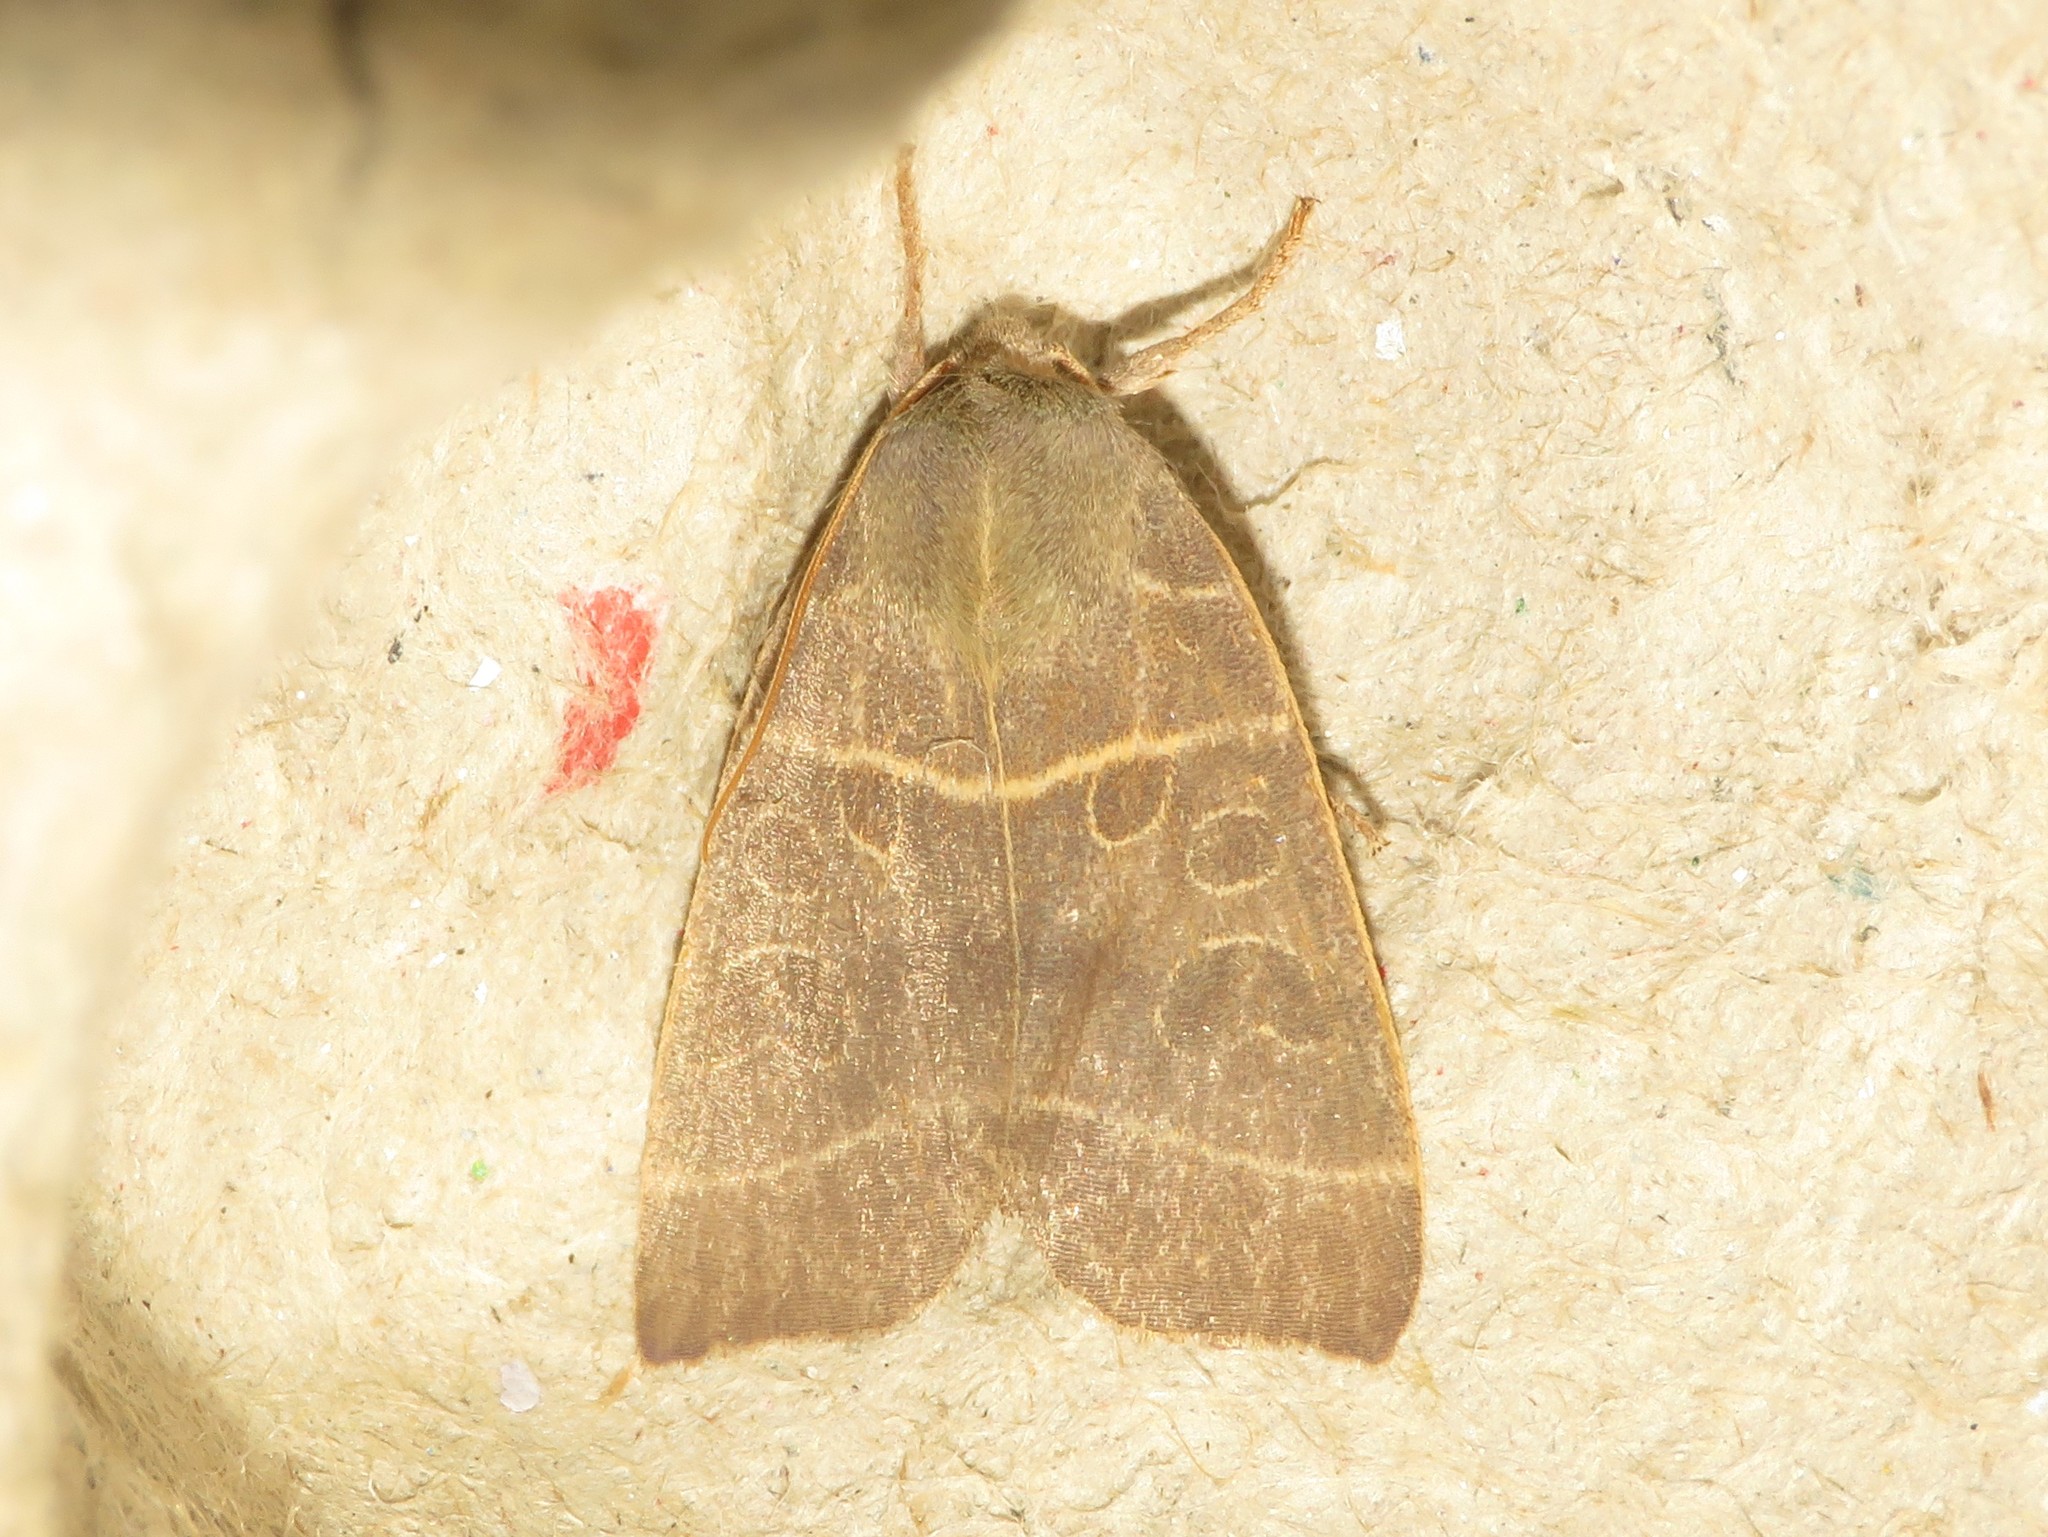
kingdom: Animalia
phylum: Arthropoda
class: Insecta
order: Lepidoptera
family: Noctuidae
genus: Ipimorpha
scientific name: Ipimorpha pleonectusa
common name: Even-lined sallow
